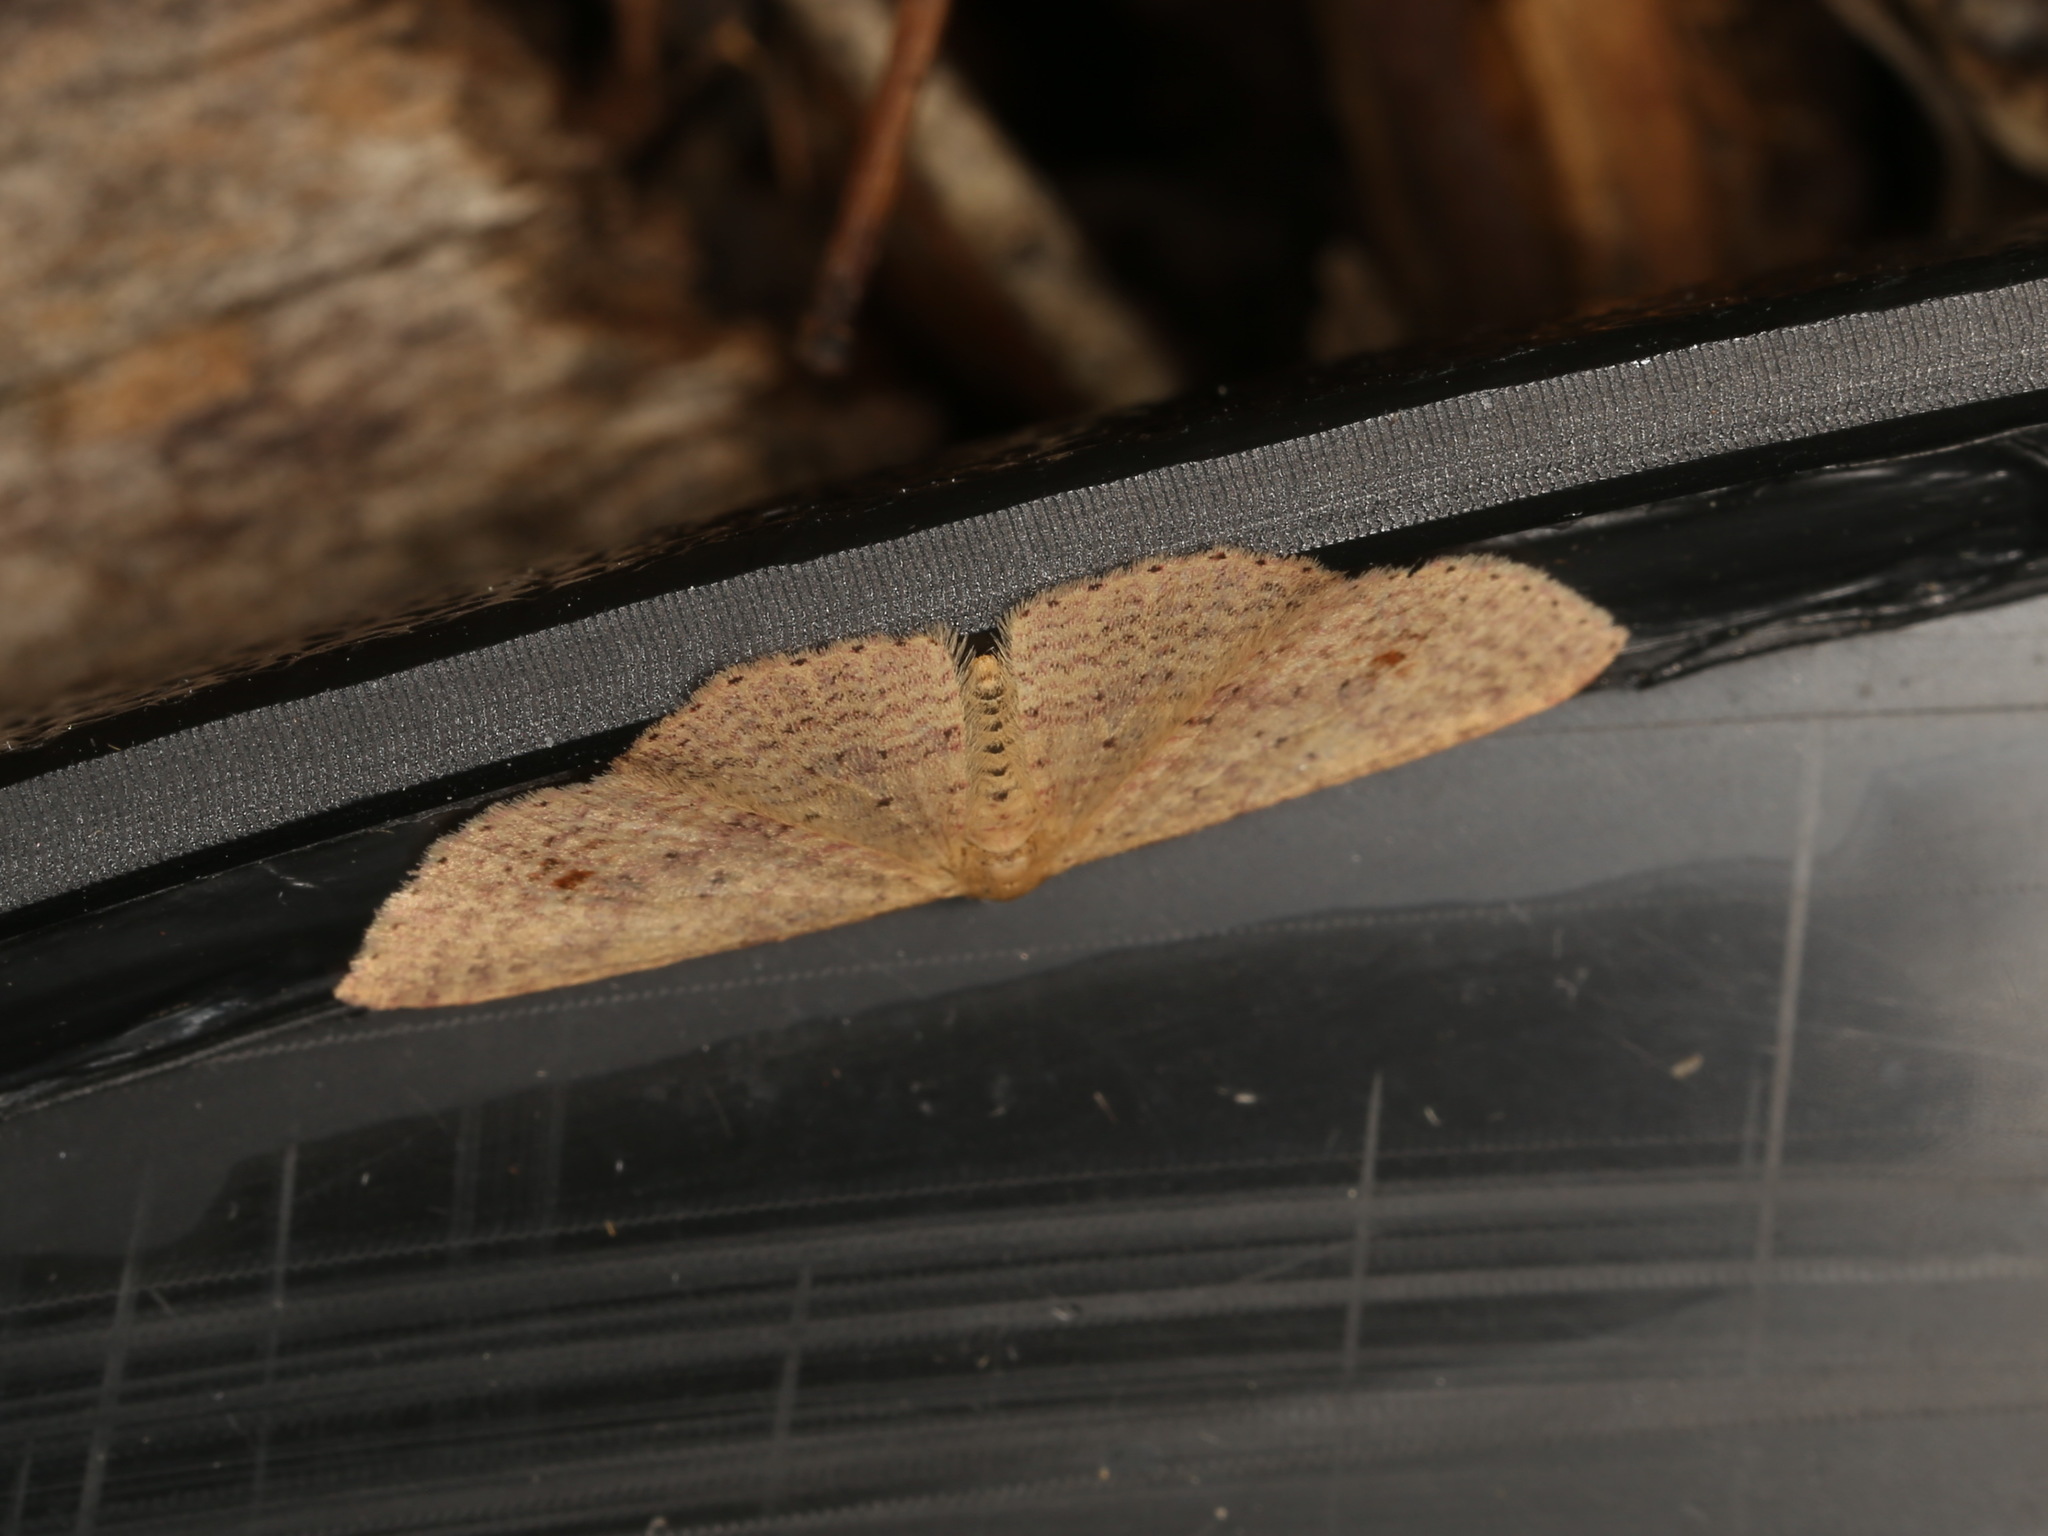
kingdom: Animalia
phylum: Arthropoda
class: Insecta
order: Lepidoptera
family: Geometridae
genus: Epicyme
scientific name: Epicyme rubropunctaria
